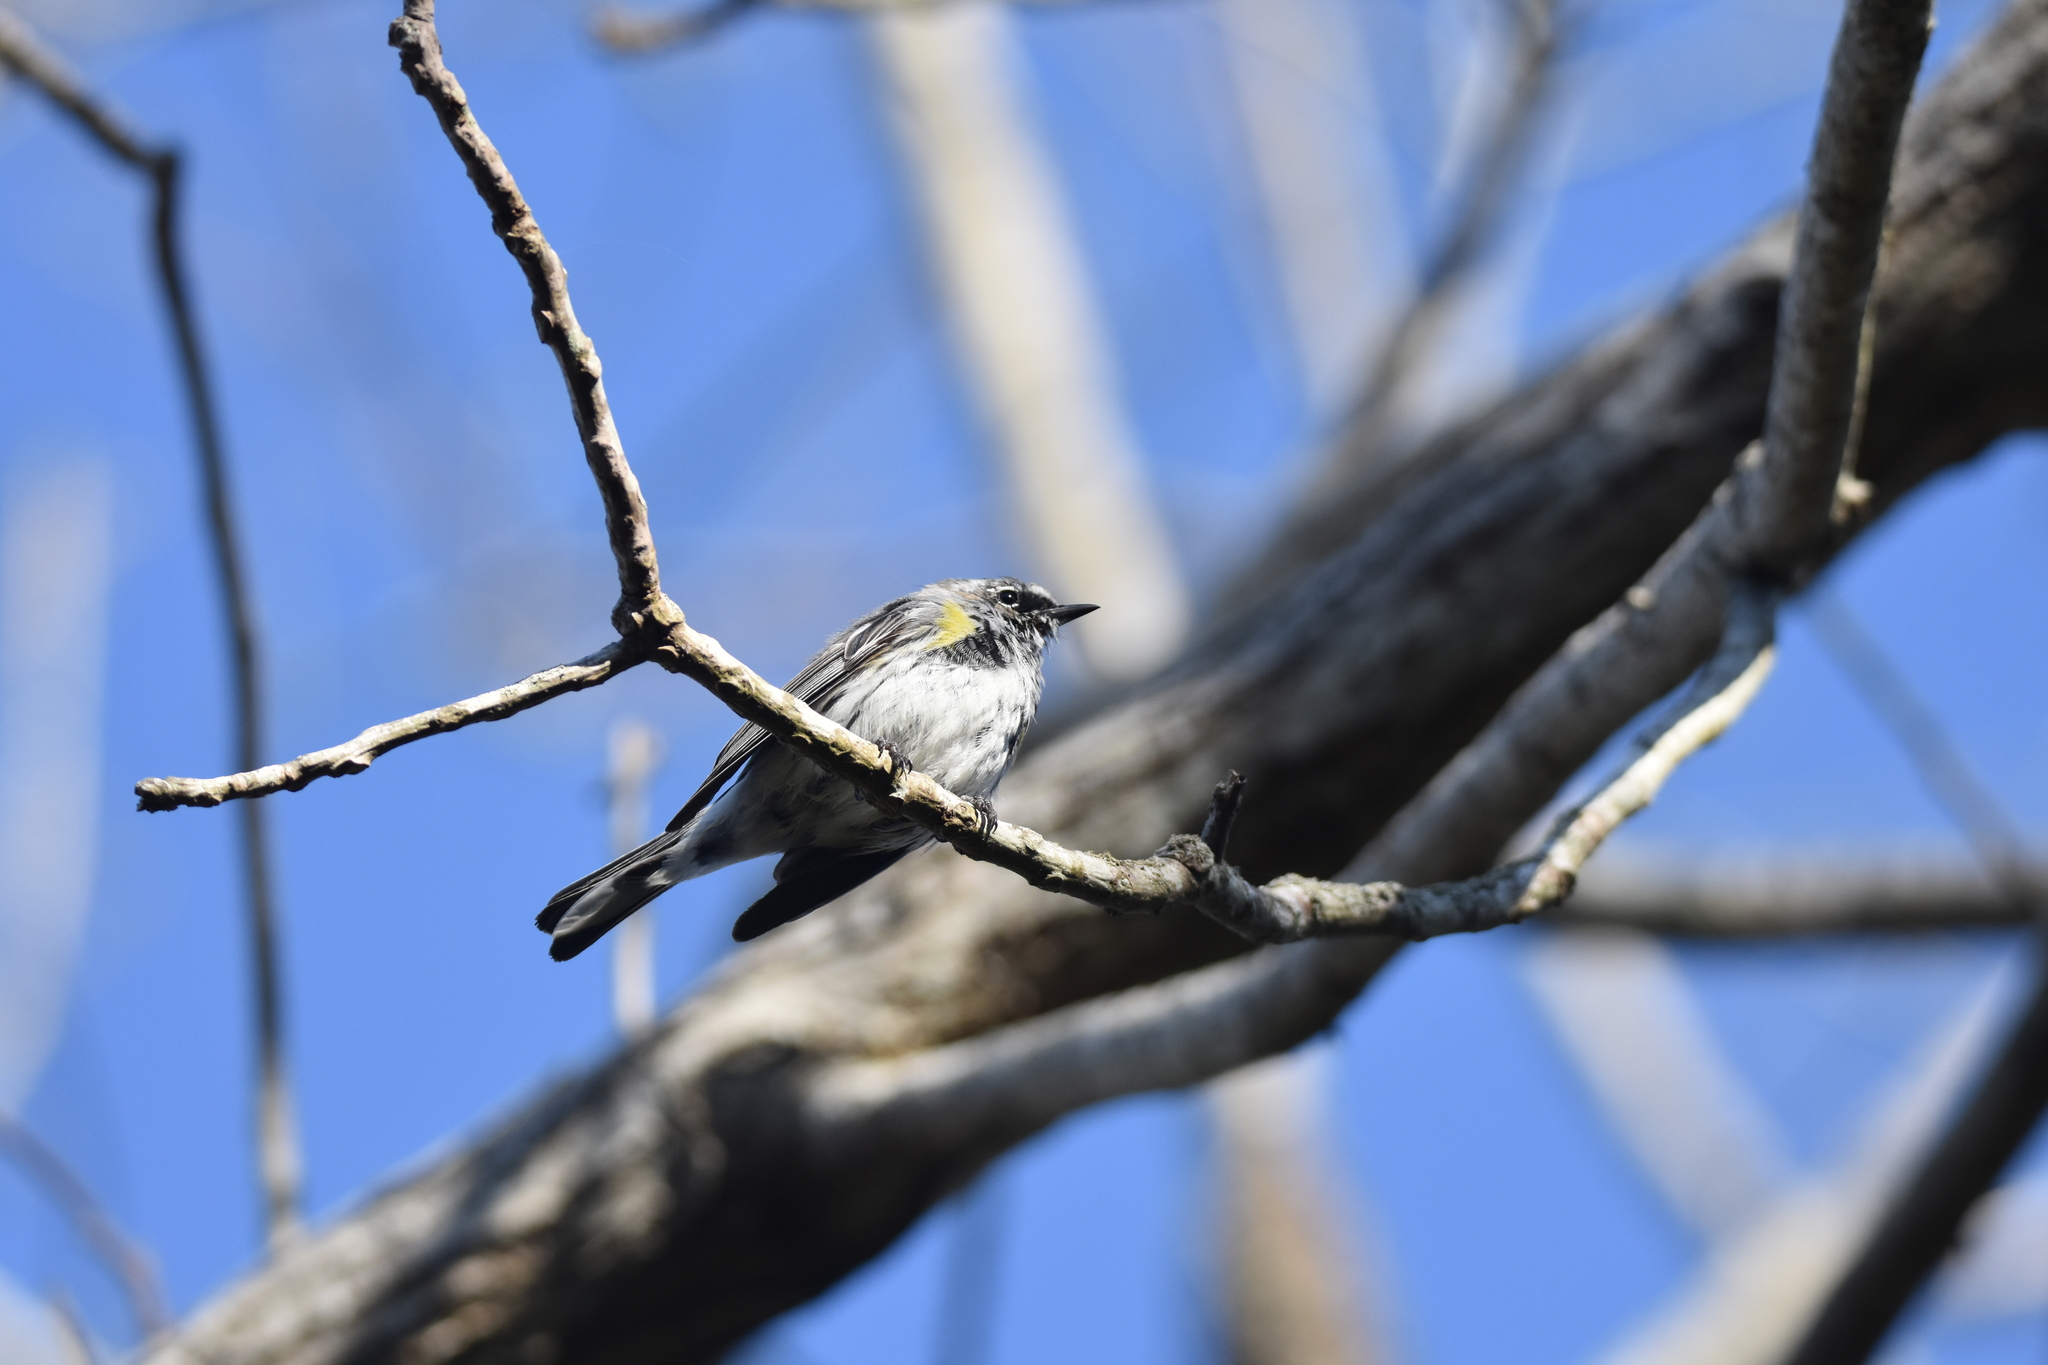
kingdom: Animalia
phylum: Chordata
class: Aves
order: Passeriformes
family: Parulidae
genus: Setophaga
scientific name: Setophaga coronata
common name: Myrtle warbler
